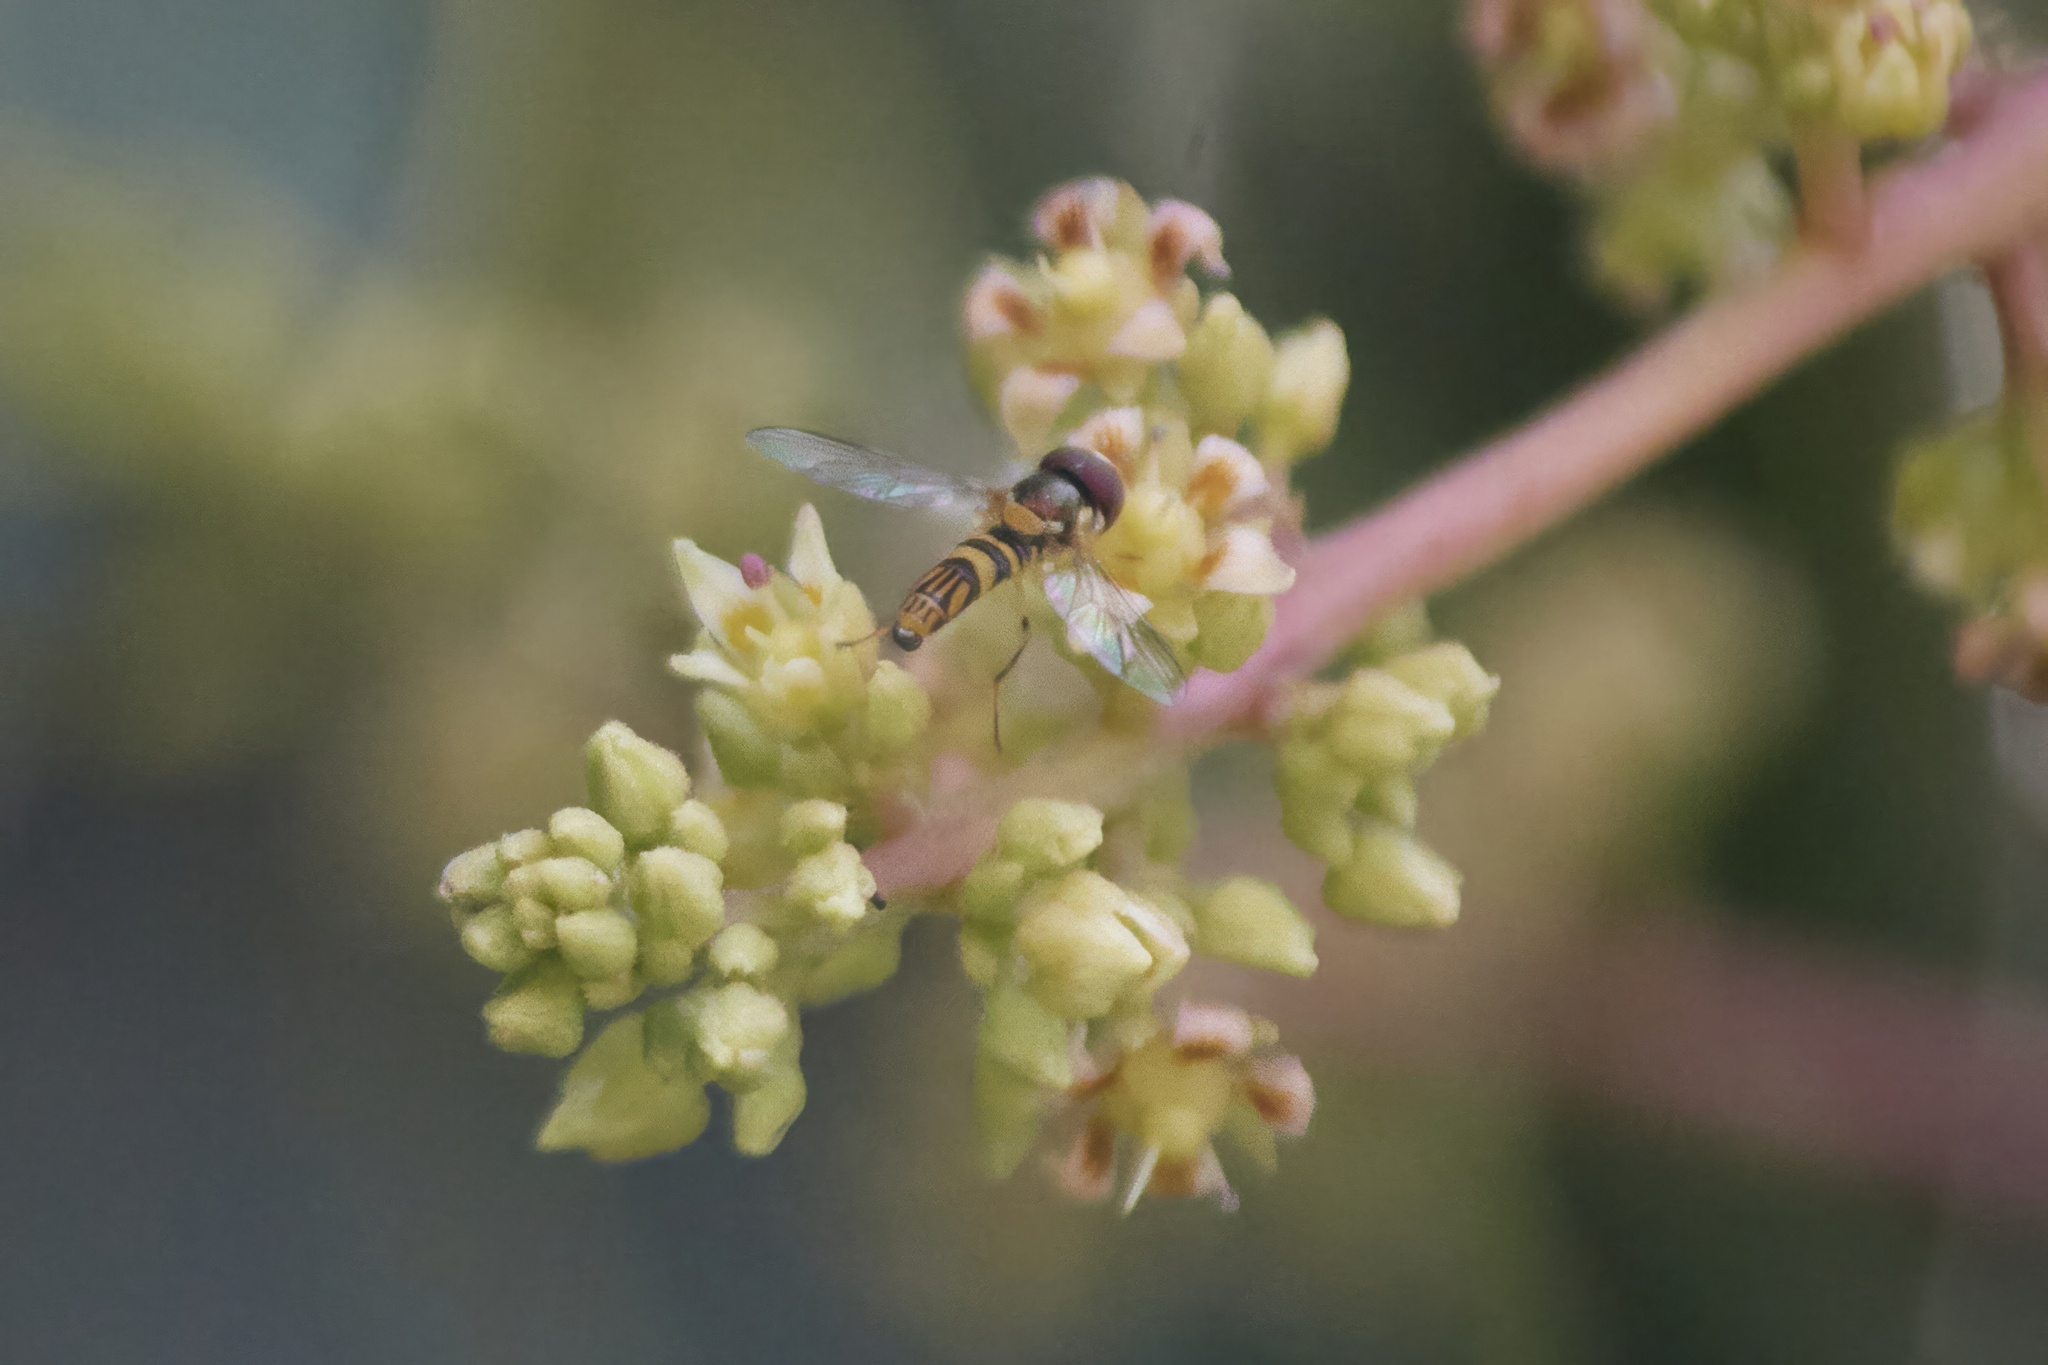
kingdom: Animalia
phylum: Arthropoda
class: Insecta
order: Diptera
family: Syrphidae
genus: Allograpta
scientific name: Allograpta obliqua
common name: Common oblique syrphid
